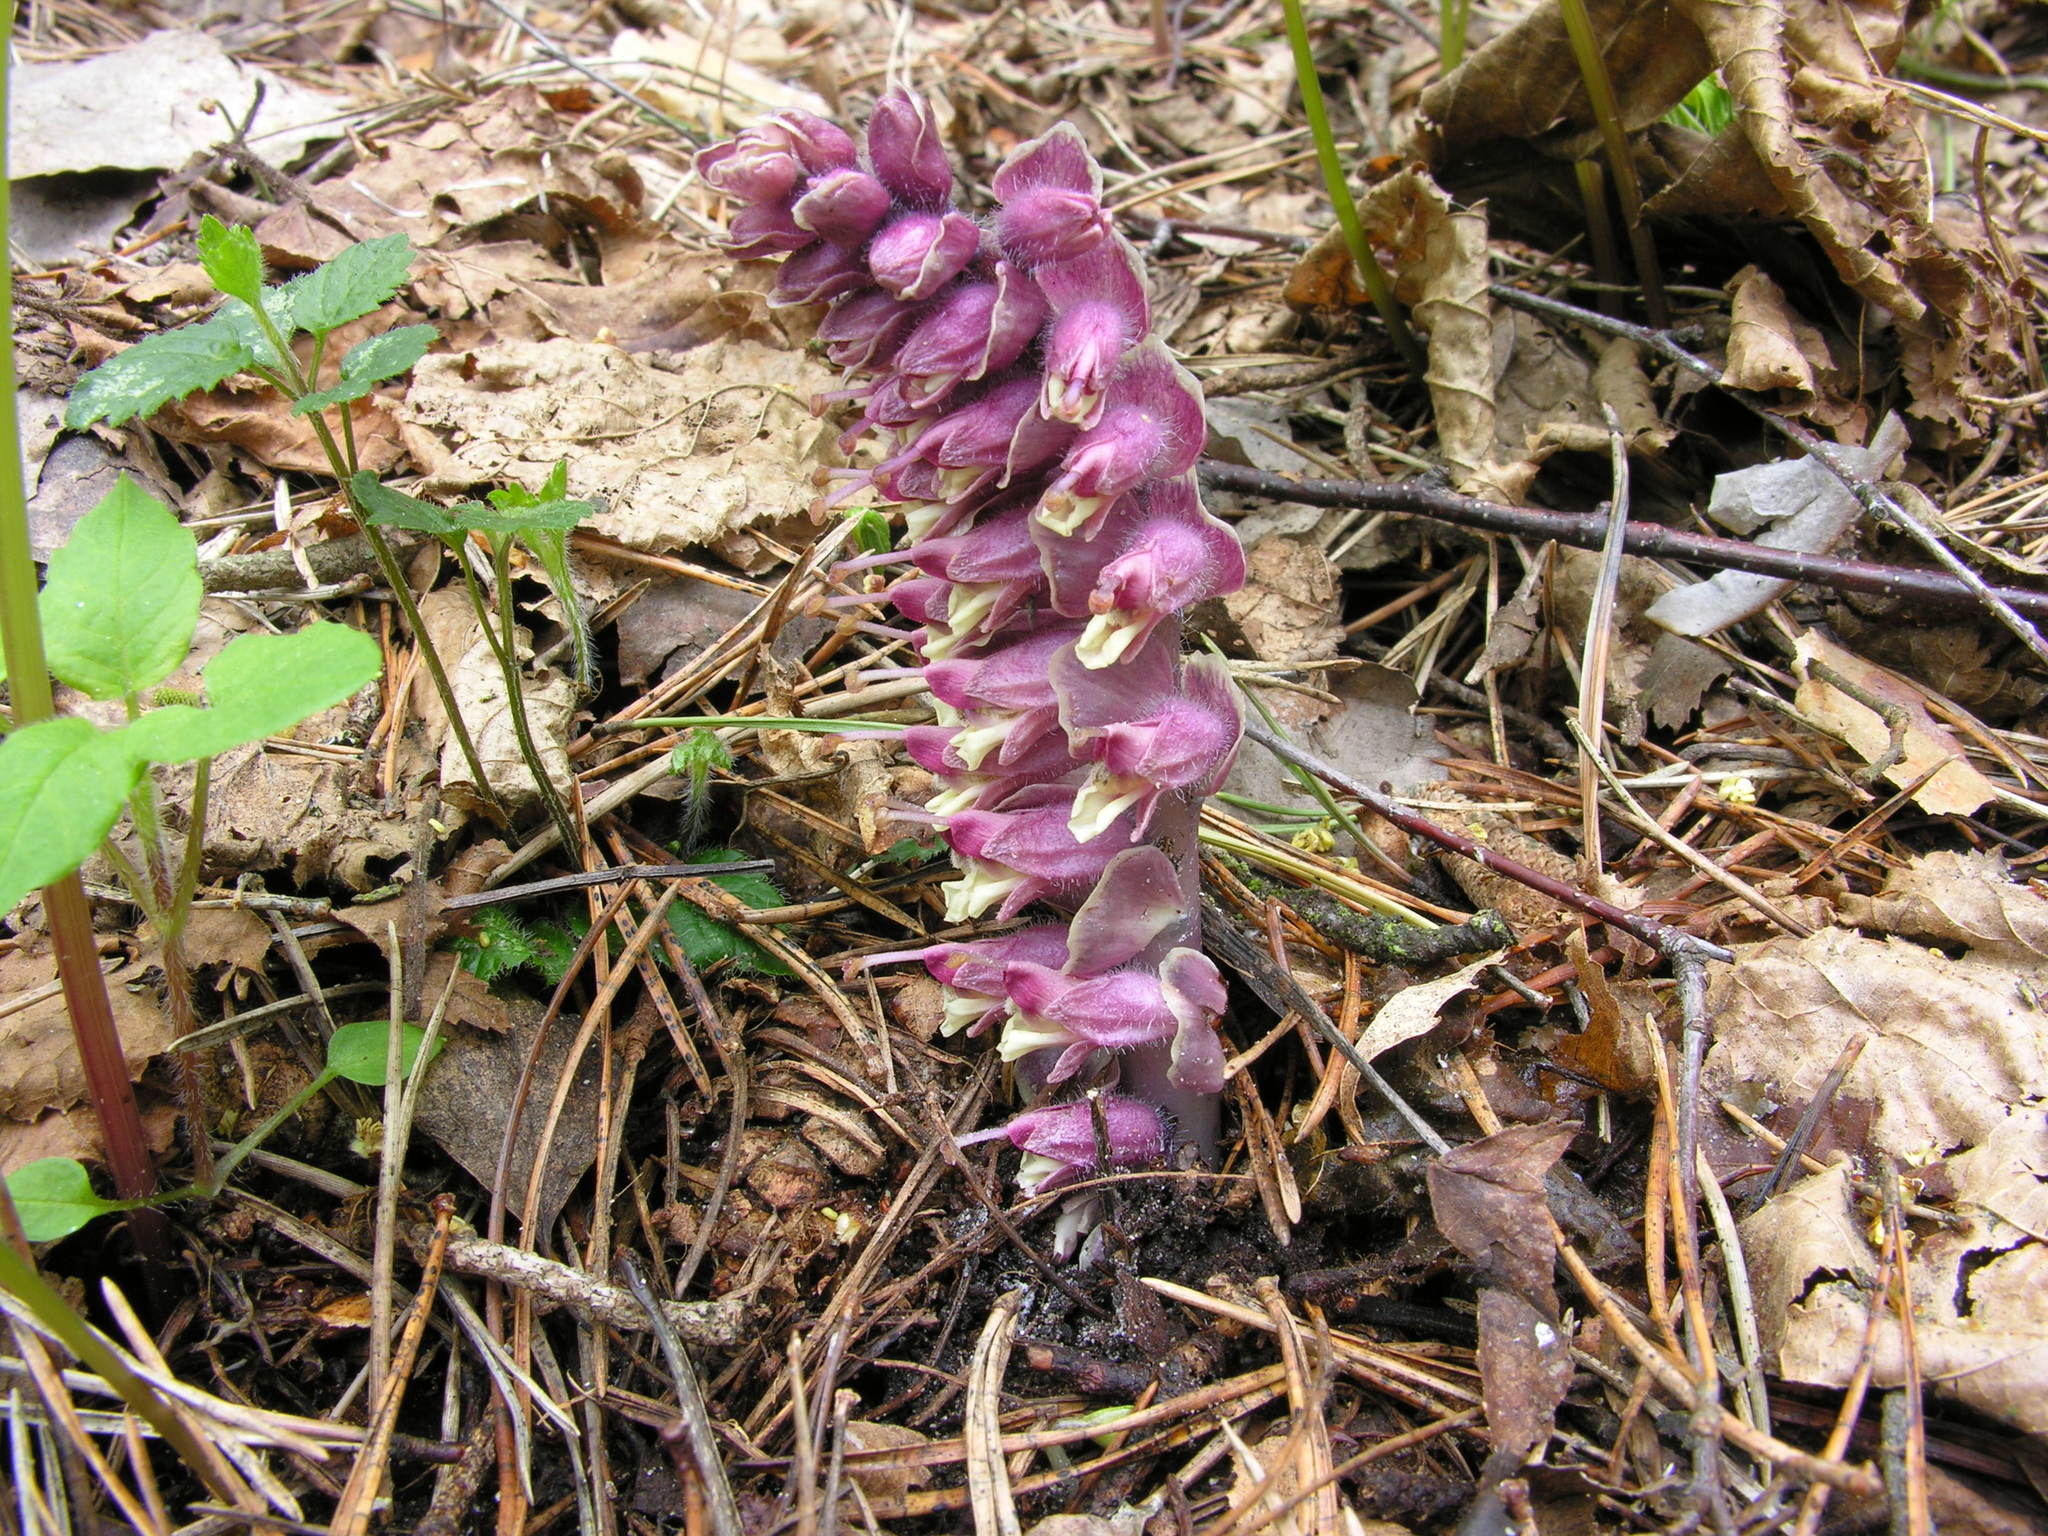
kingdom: Plantae
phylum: Tracheophyta
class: Magnoliopsida
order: Lamiales
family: Orobanchaceae
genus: Lathraea
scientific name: Lathraea squamaria
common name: Toothwort
